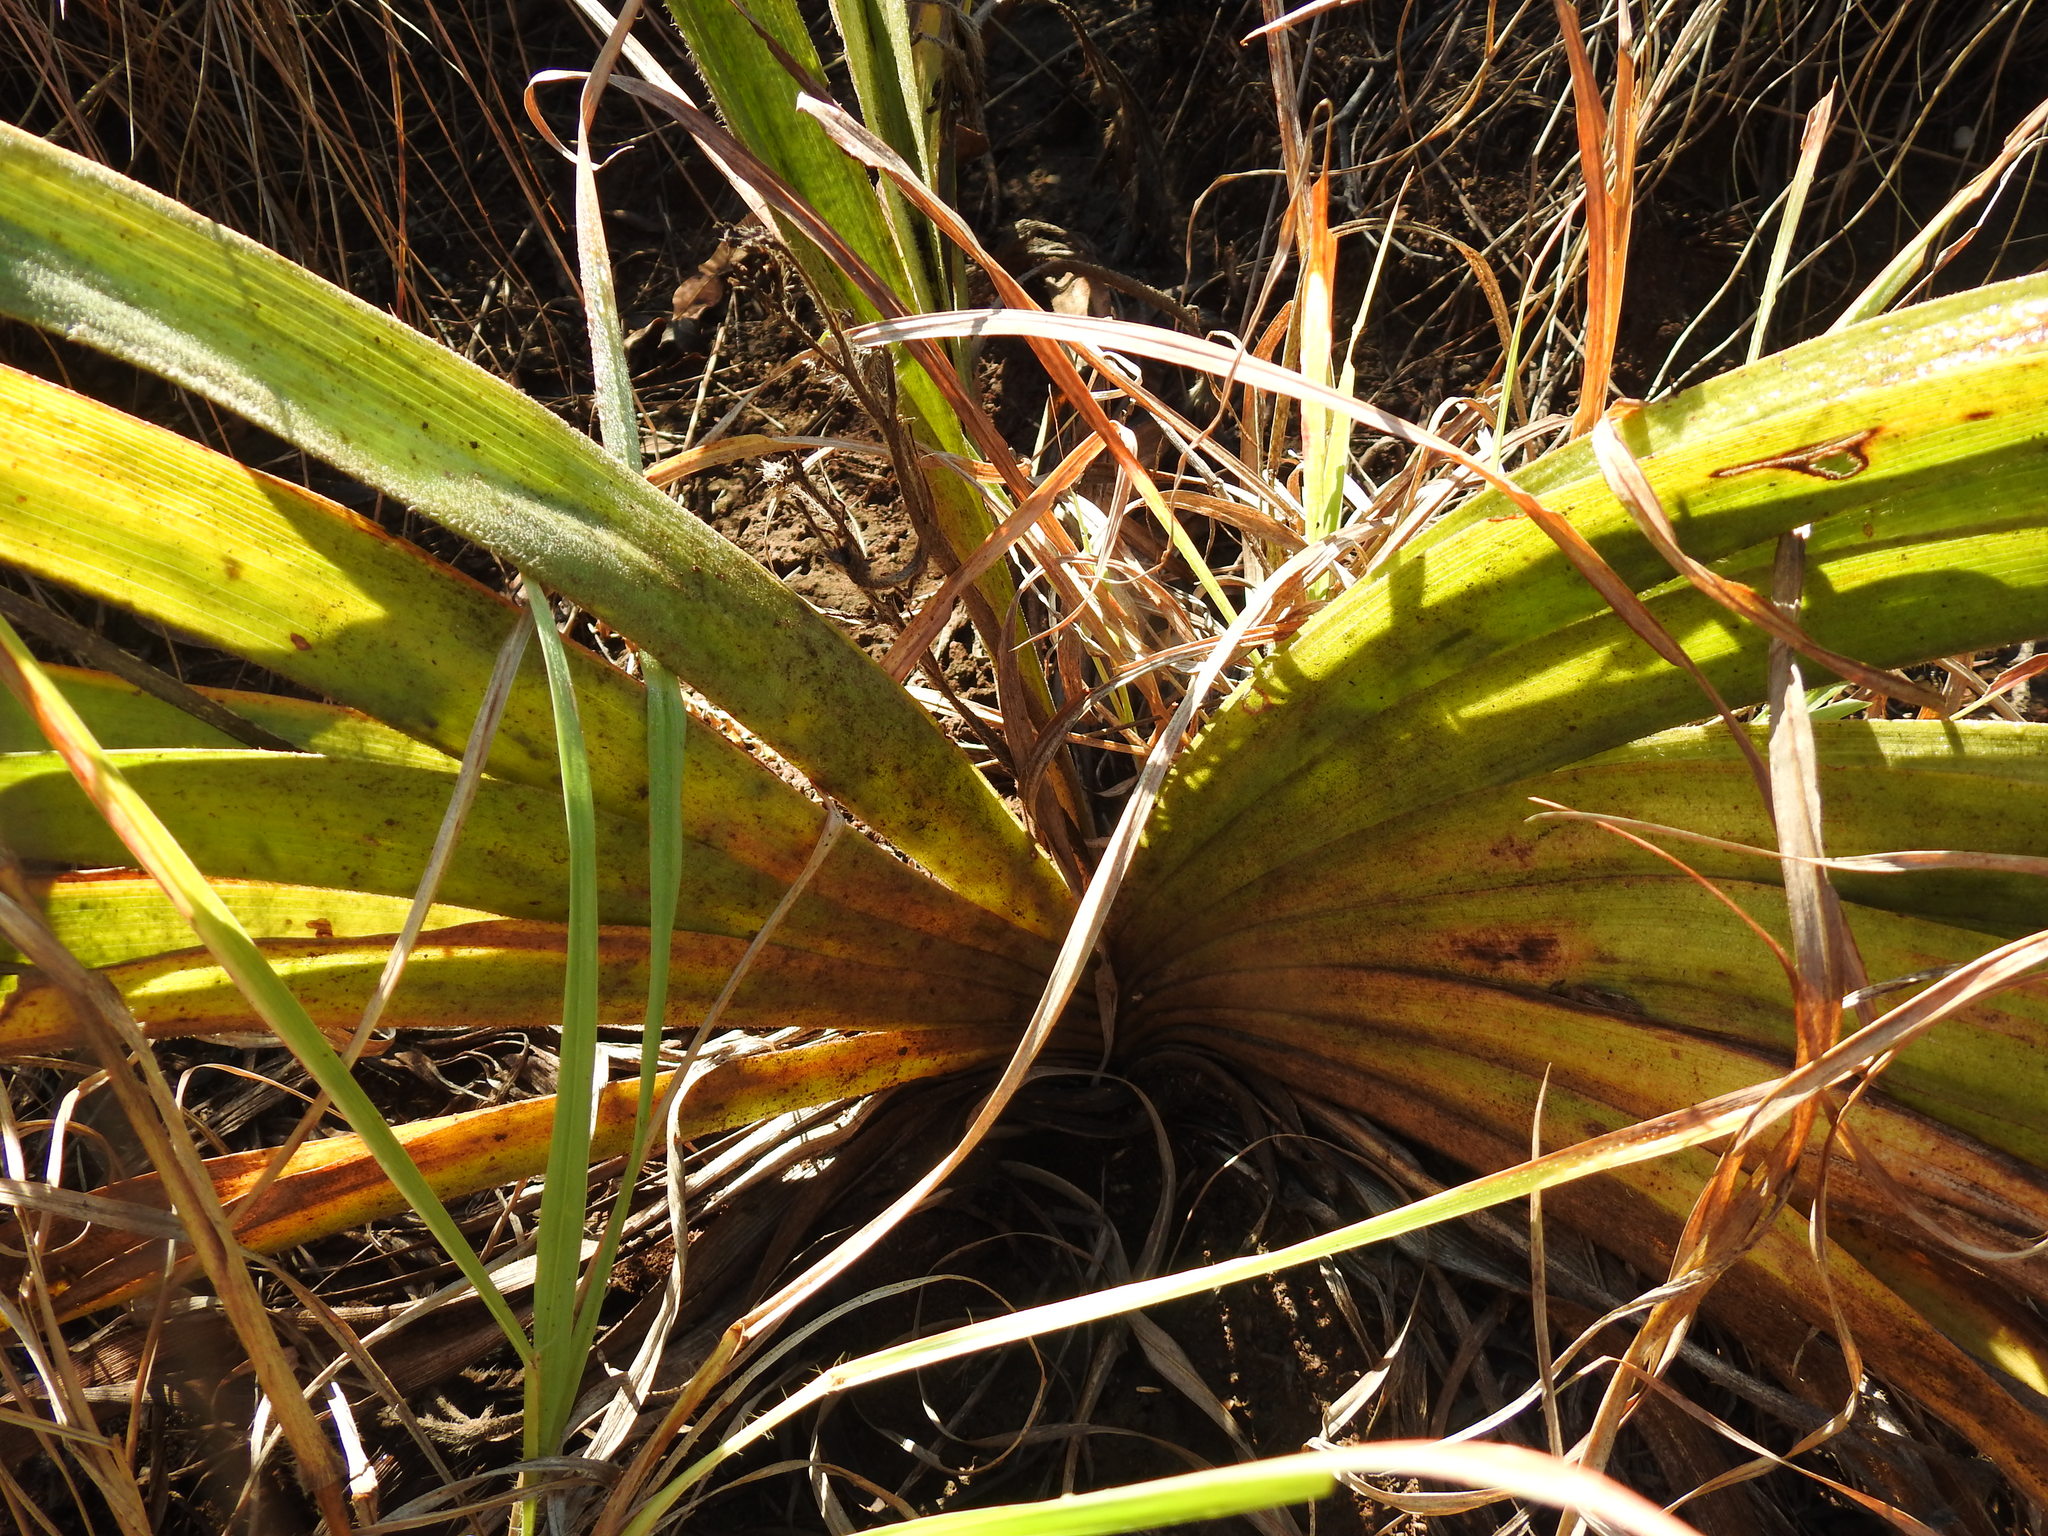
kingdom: Plantae
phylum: Tracheophyta
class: Liliopsida
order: Asparagales
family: Hypoxidaceae
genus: Hypoxis
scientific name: Hypoxis hemerocallidea
